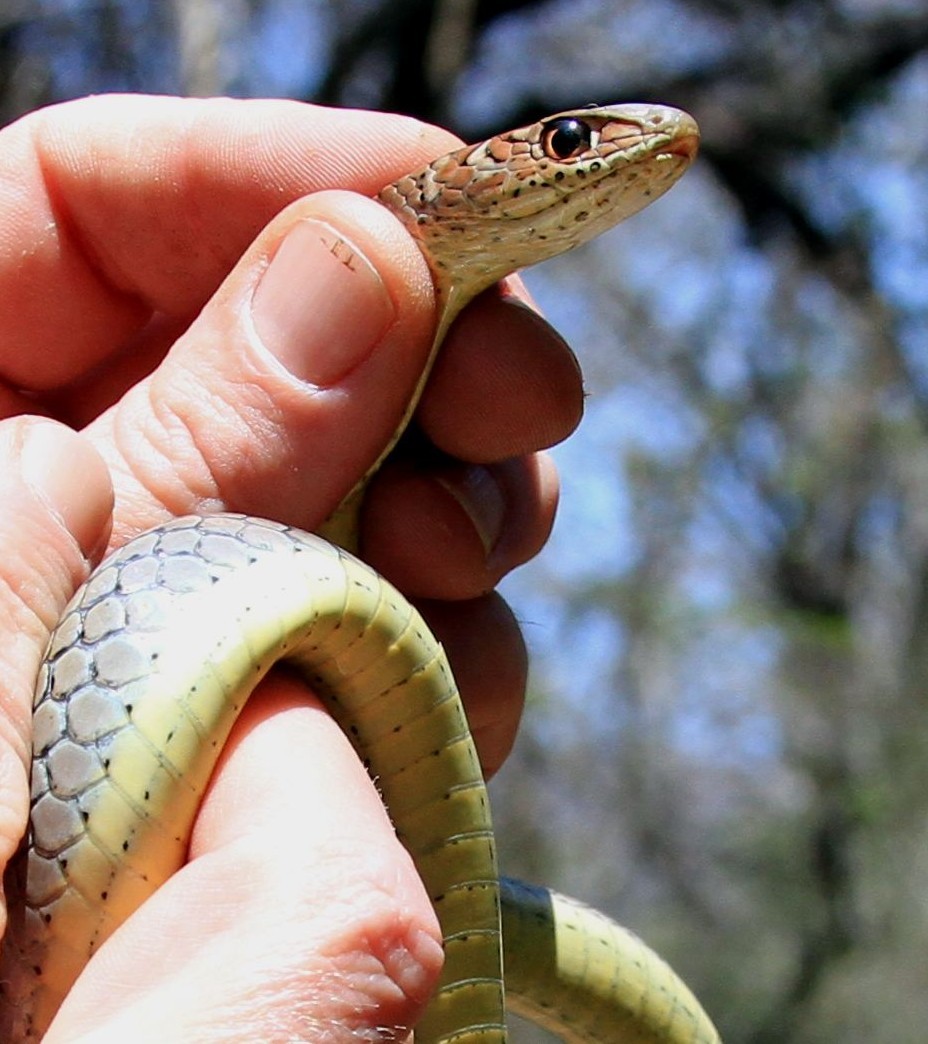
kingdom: Animalia
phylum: Chordata
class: Squamata
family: Psammophiidae
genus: Psammophis
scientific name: Psammophis mossambicus
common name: Olive grass snake
